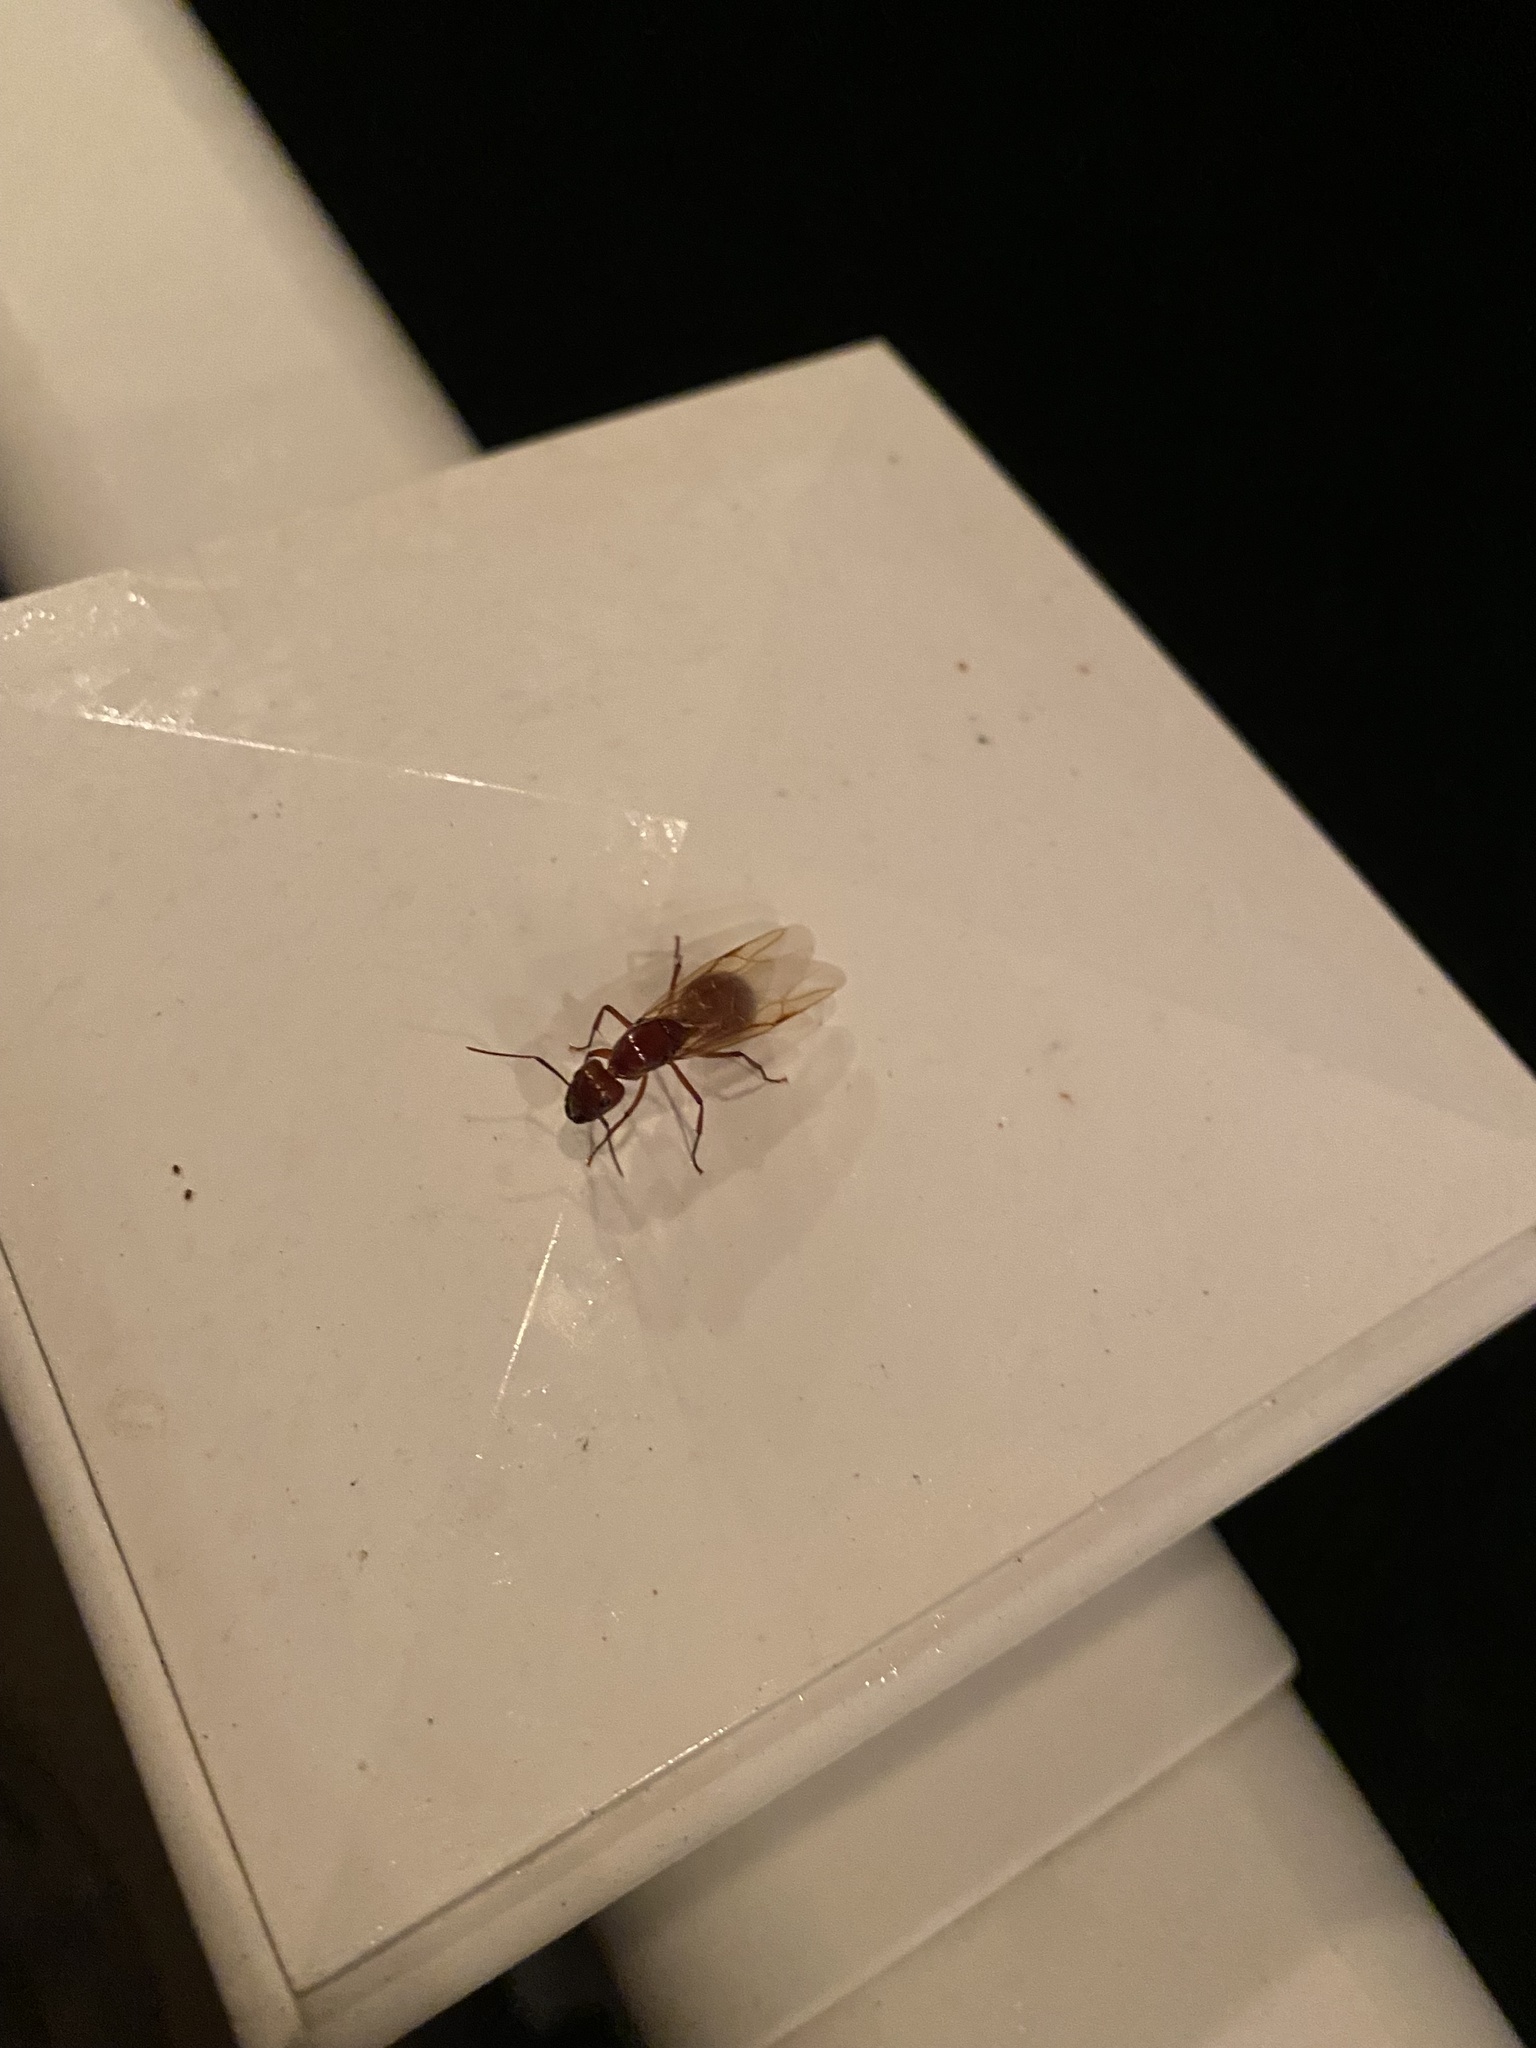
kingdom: Animalia
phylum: Arthropoda
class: Insecta
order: Hymenoptera
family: Formicidae
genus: Camponotus
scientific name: Camponotus castaneus
